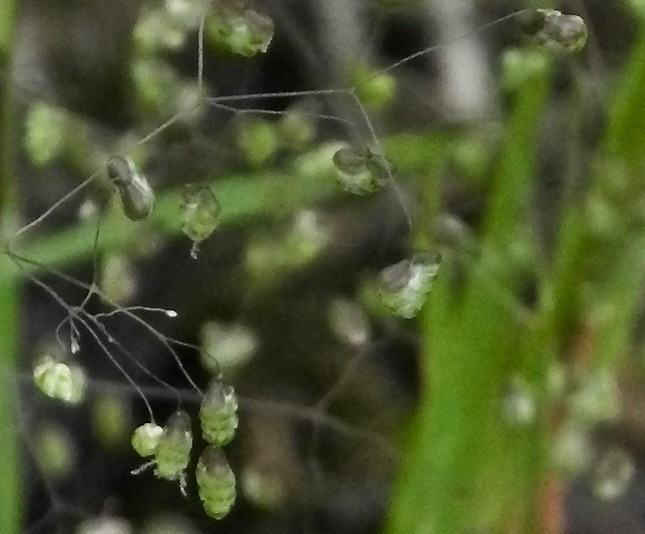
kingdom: Plantae
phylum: Tracheophyta
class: Liliopsida
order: Poales
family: Poaceae
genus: Briza
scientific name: Briza minor
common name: Lesser quaking-grass
